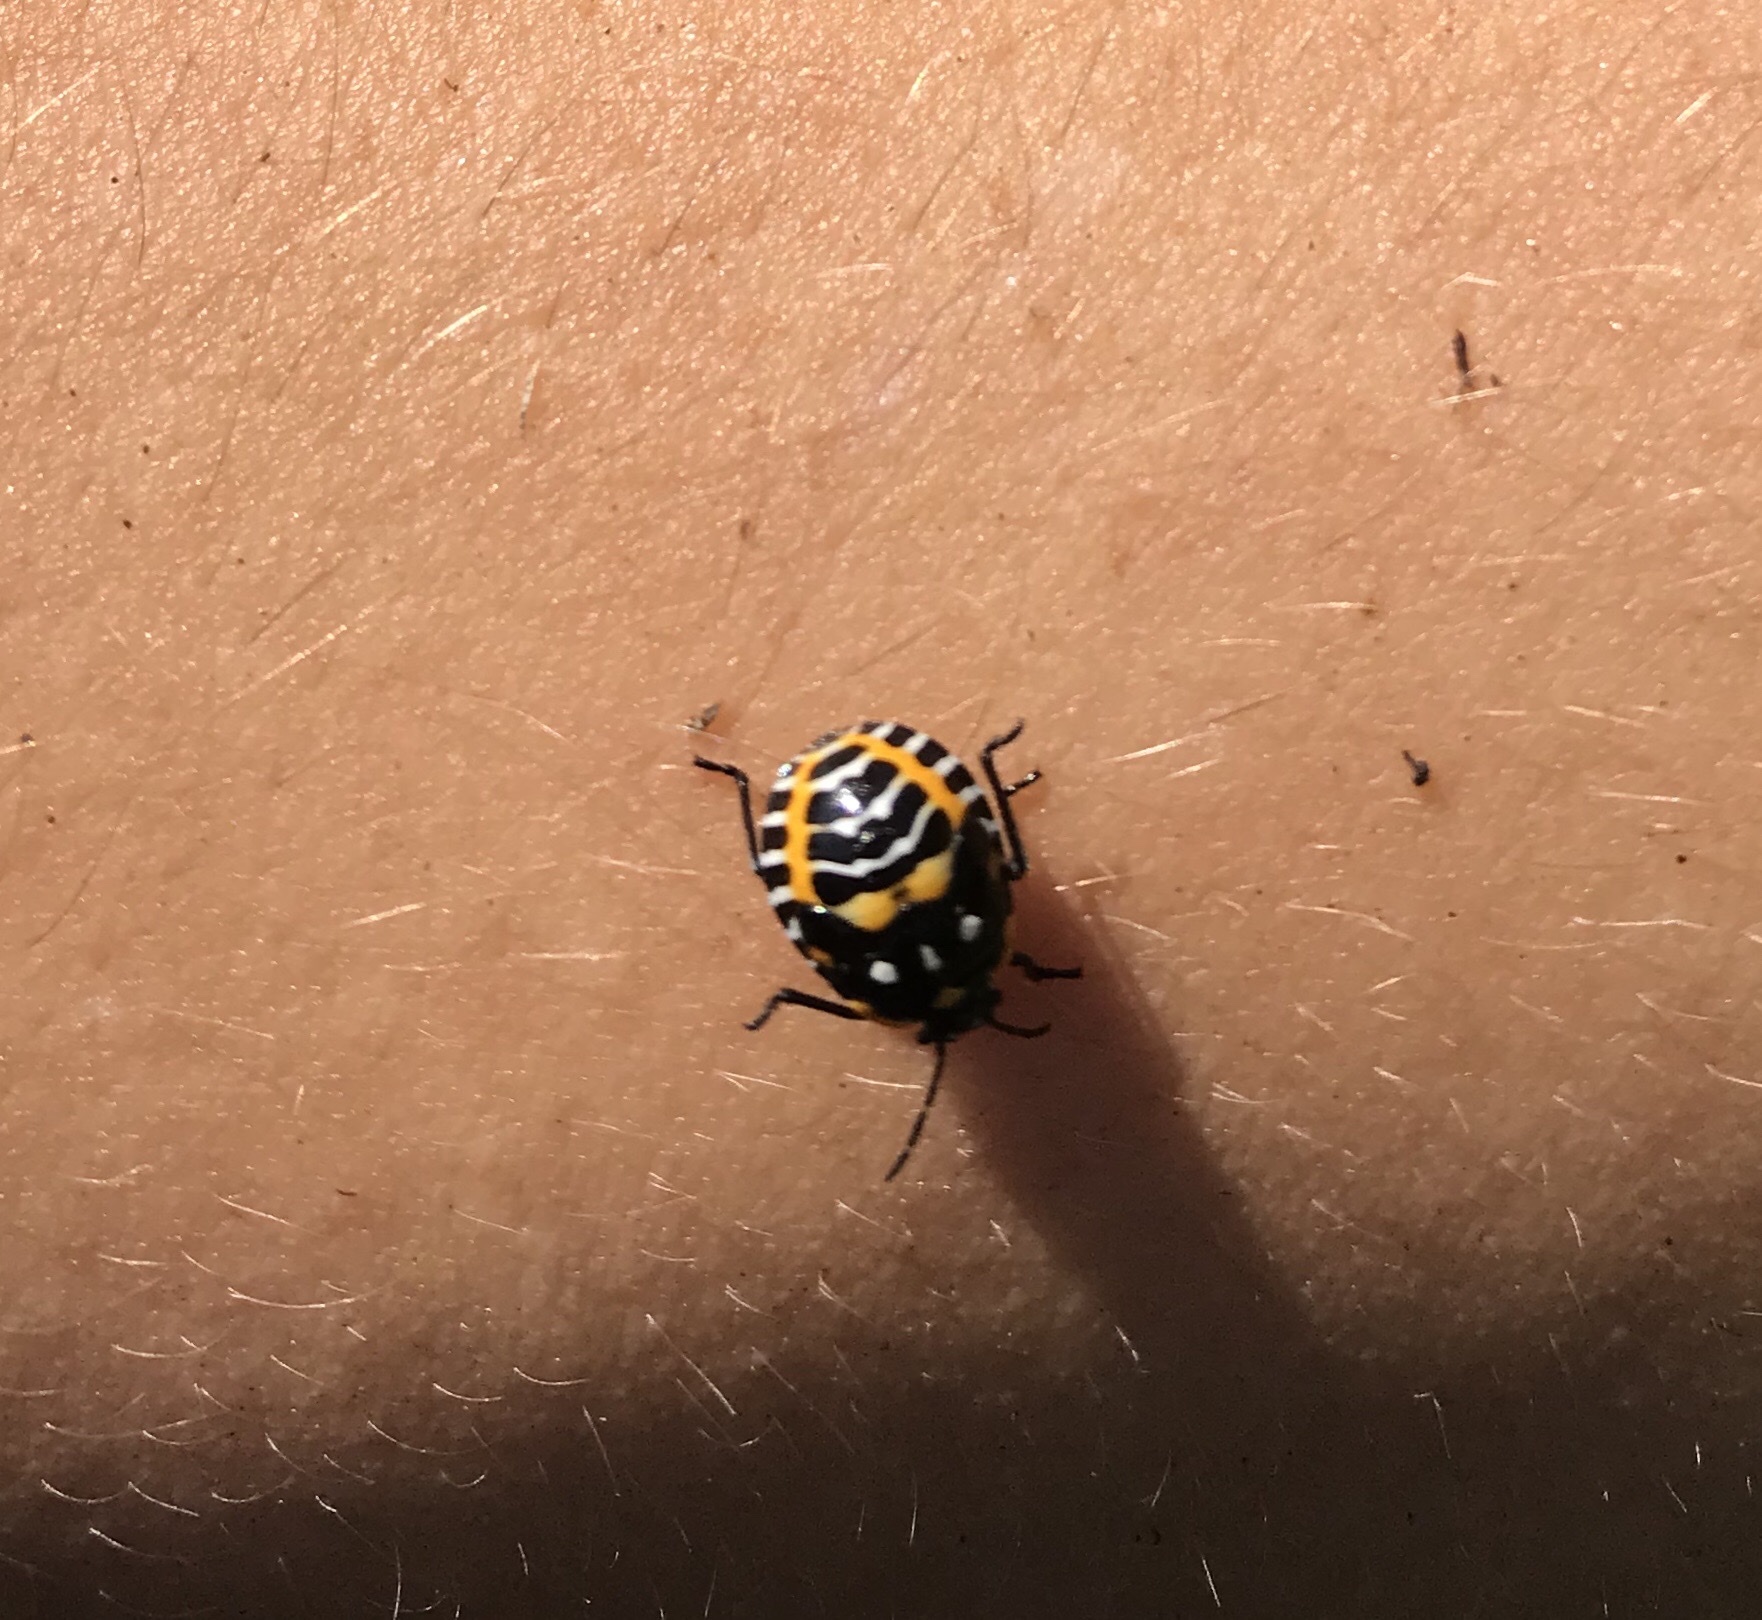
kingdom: Animalia
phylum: Arthropoda
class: Insecta
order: Hemiptera
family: Pentatomidae
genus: Murgantia
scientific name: Murgantia histrionica
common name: Harlequin bug
